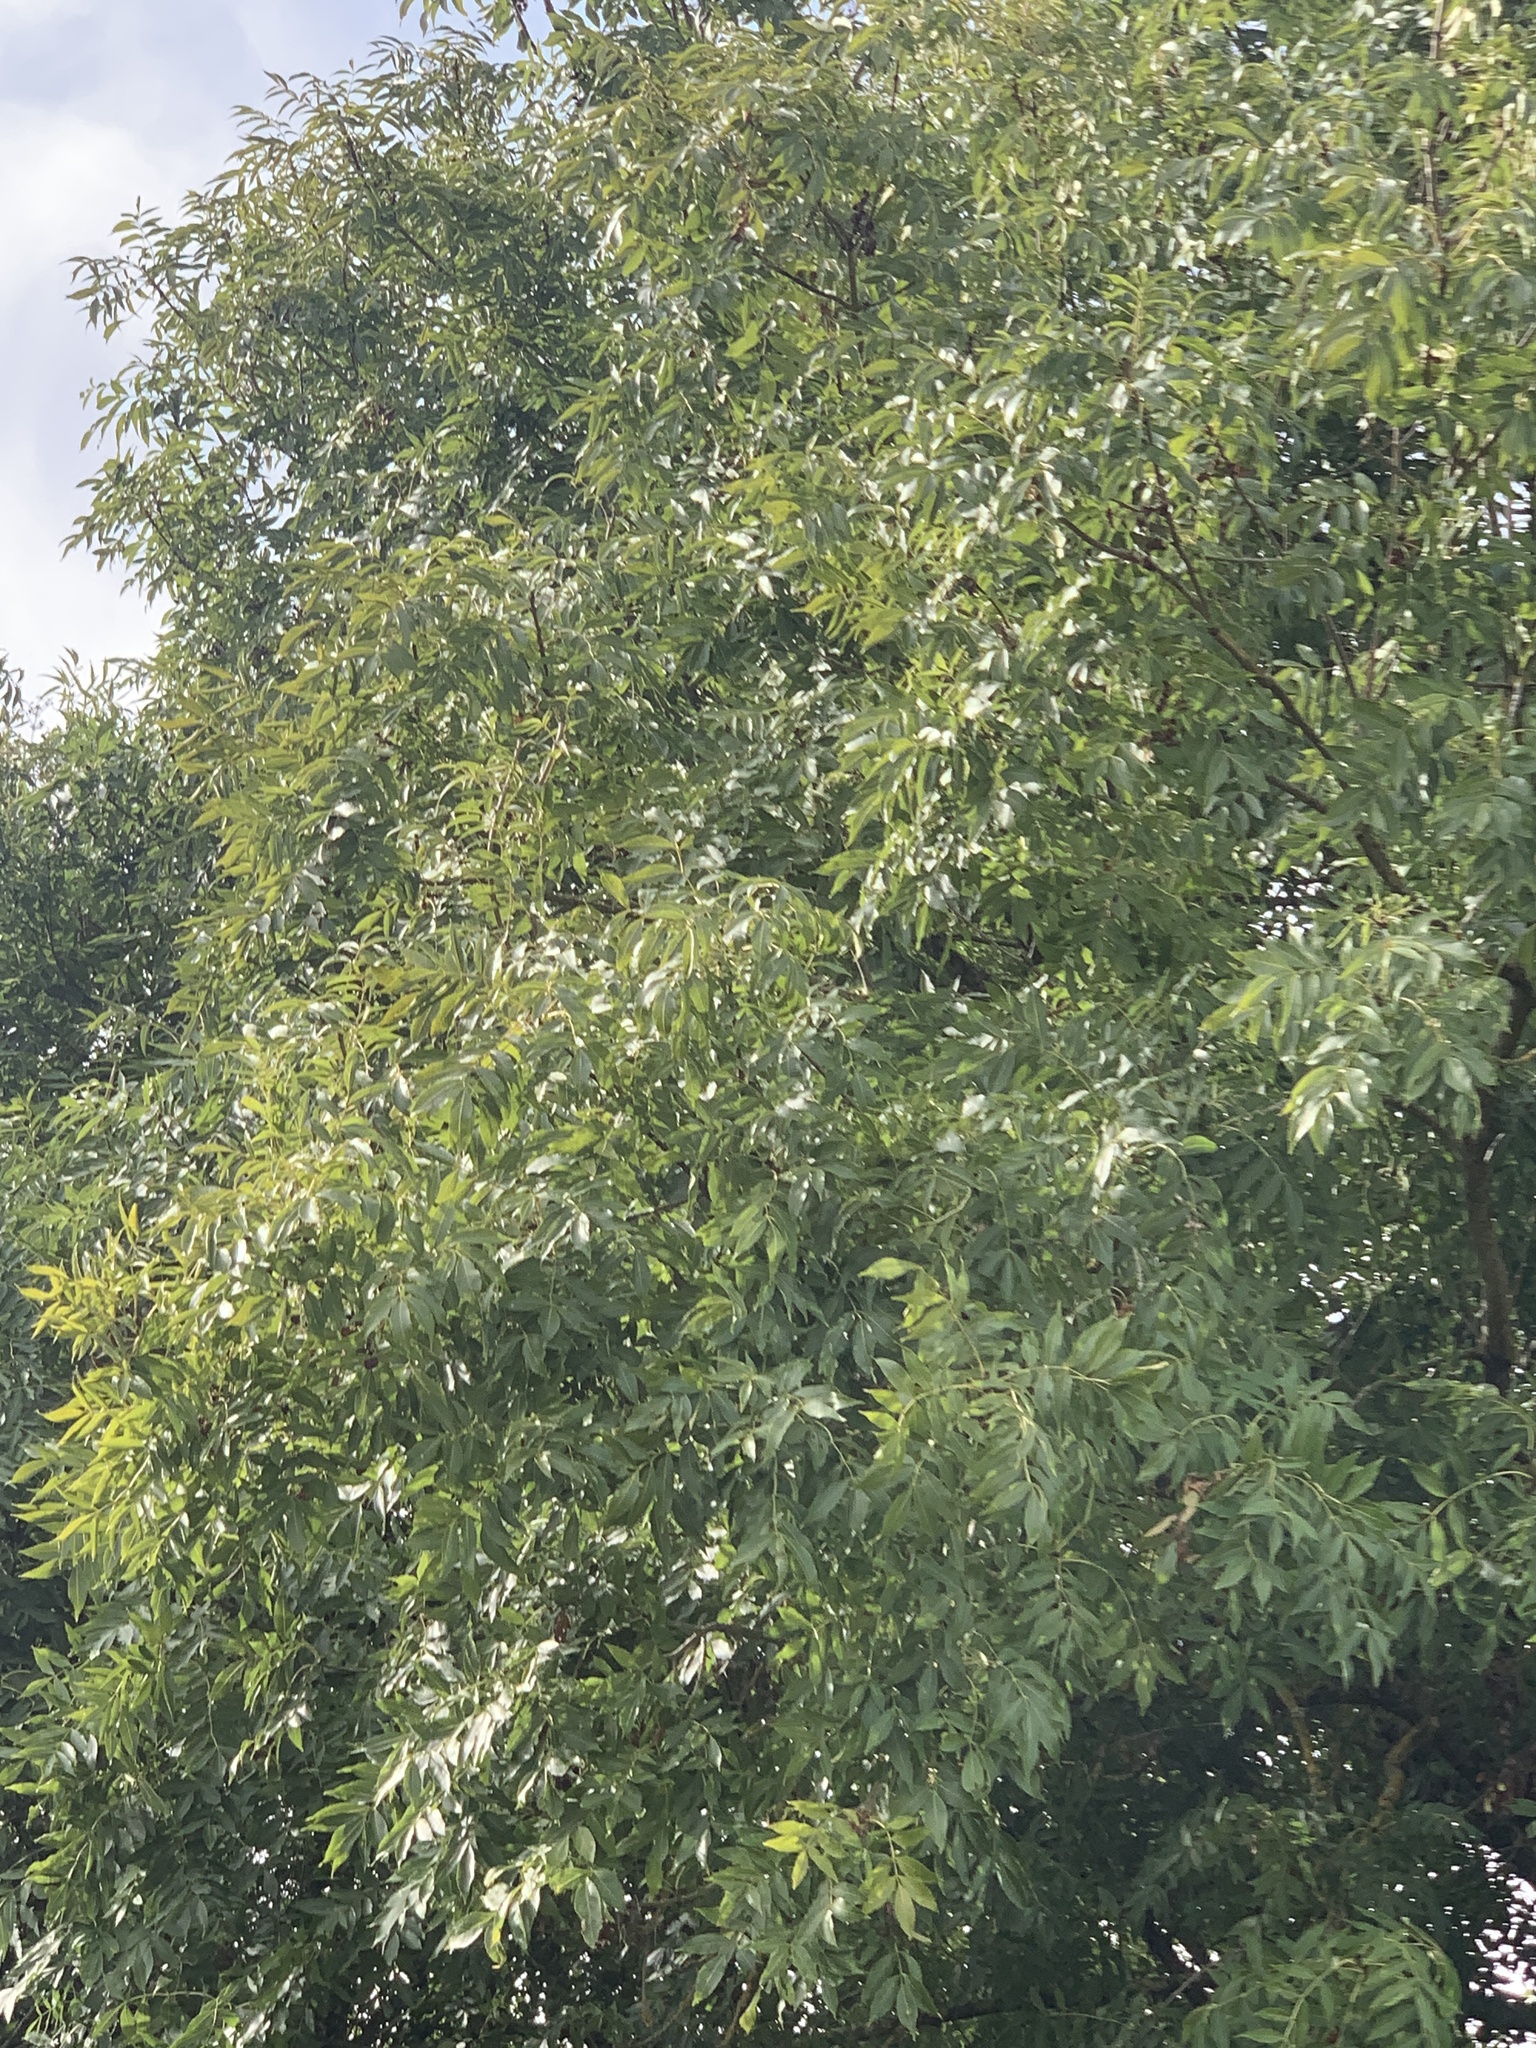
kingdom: Plantae
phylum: Tracheophyta
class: Magnoliopsida
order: Lamiales
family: Oleaceae
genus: Fraxinus
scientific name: Fraxinus excelsior
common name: European ash
